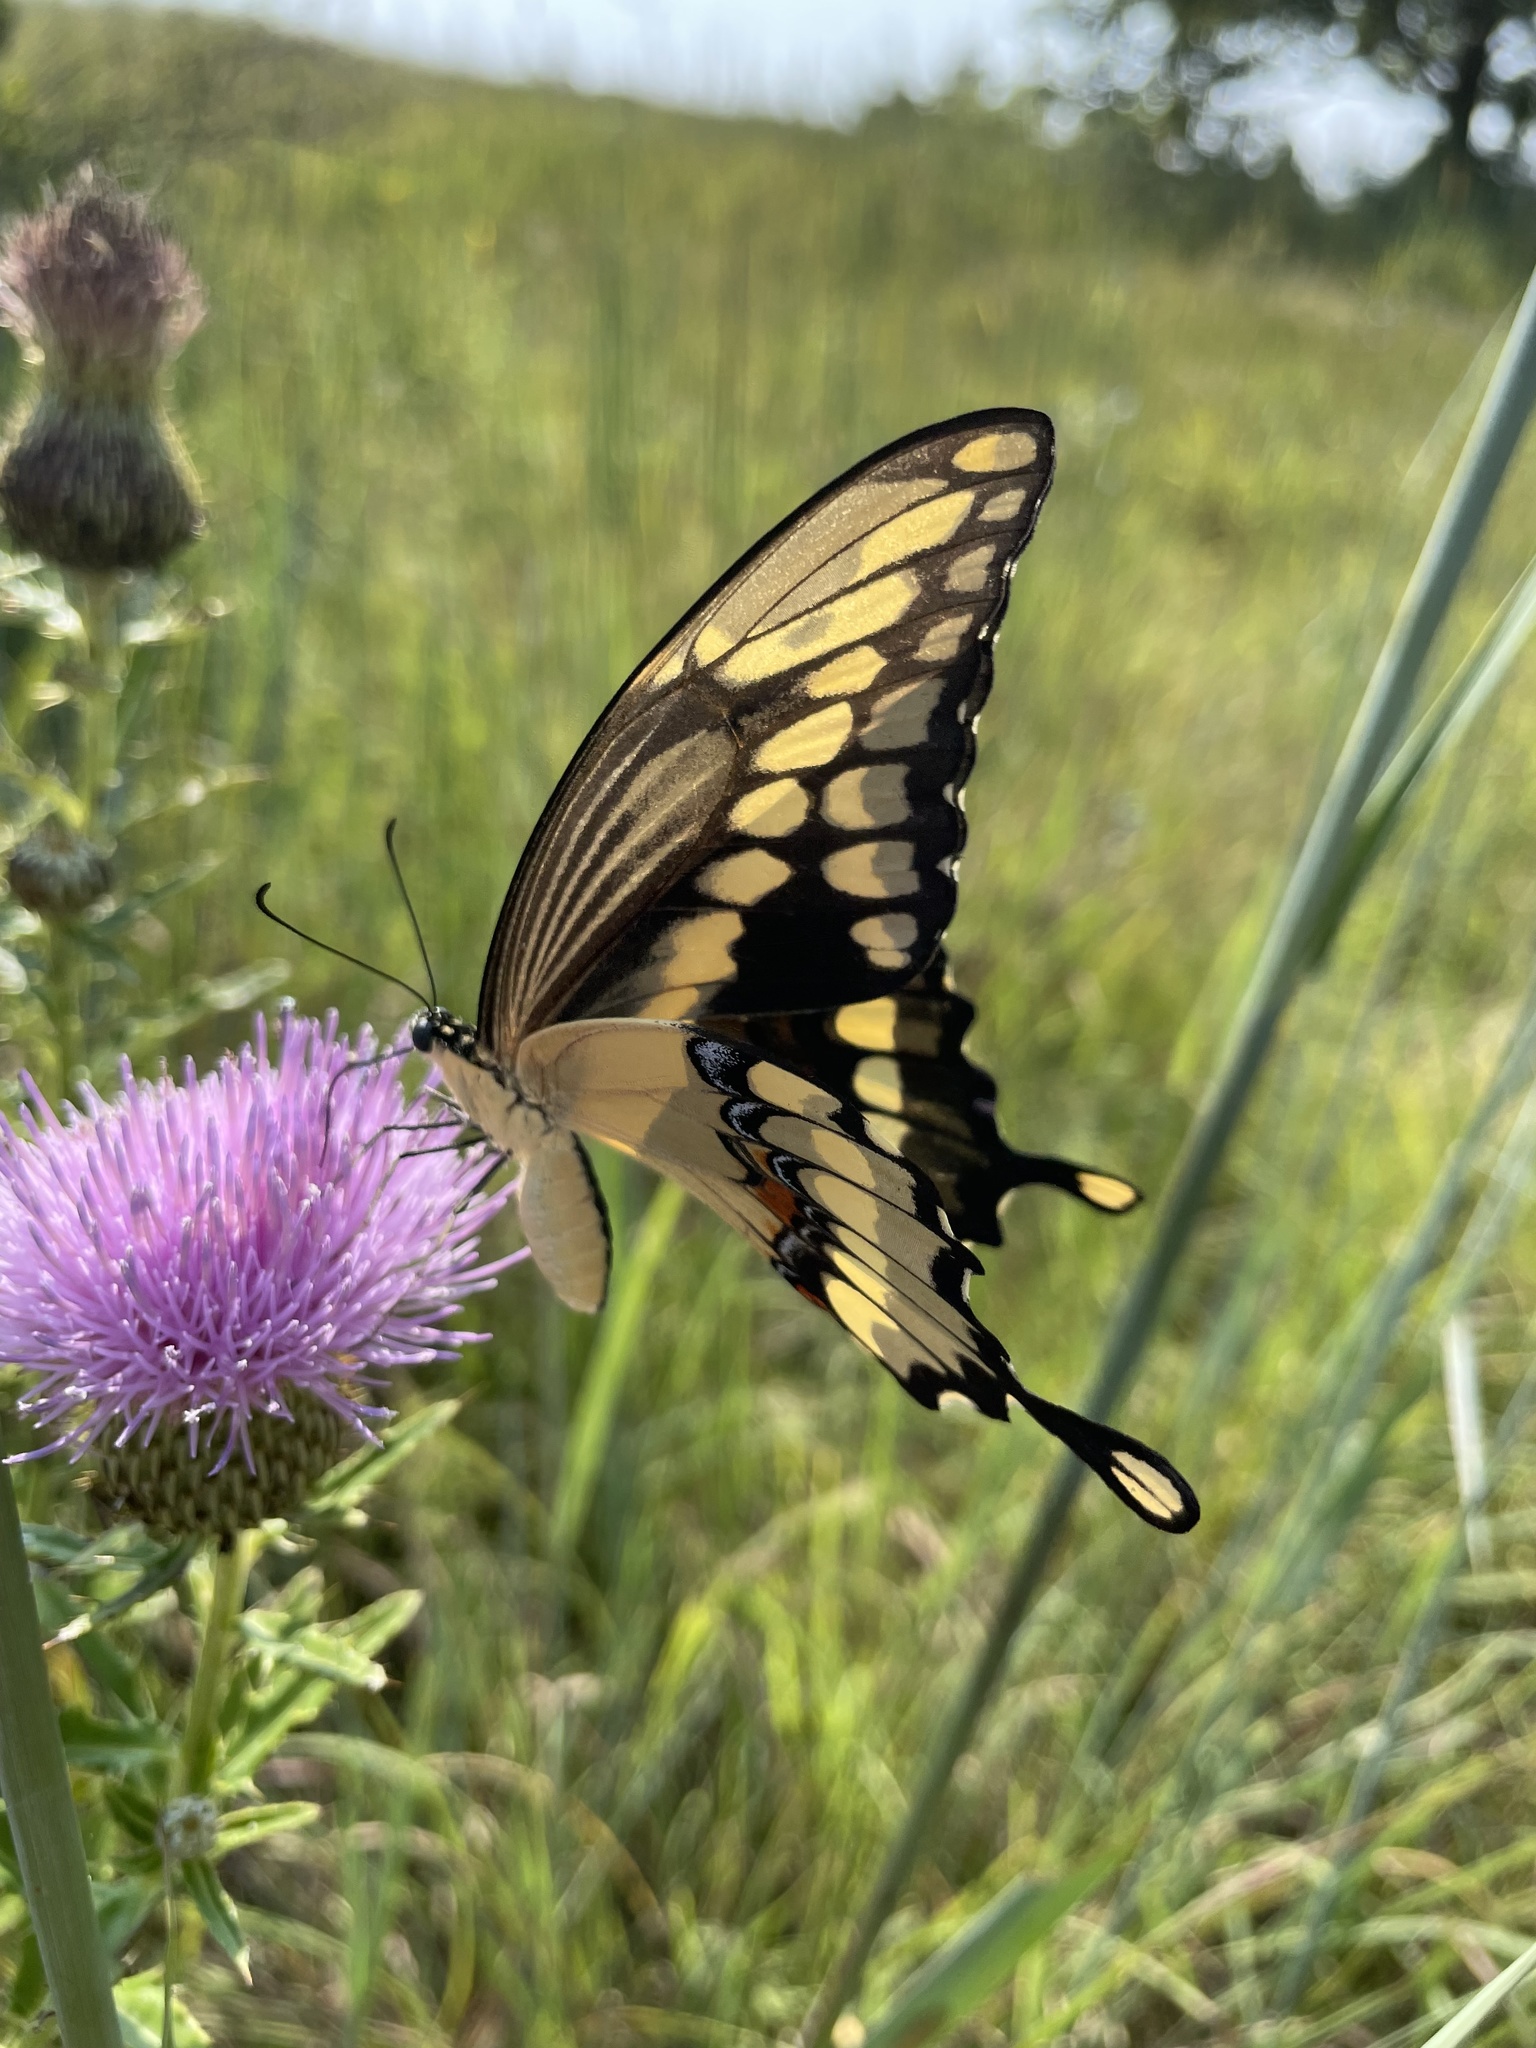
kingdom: Animalia
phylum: Arthropoda
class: Insecta
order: Lepidoptera
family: Papilionidae
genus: Papilio
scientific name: Papilio cresphontes
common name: Giant swallowtail
